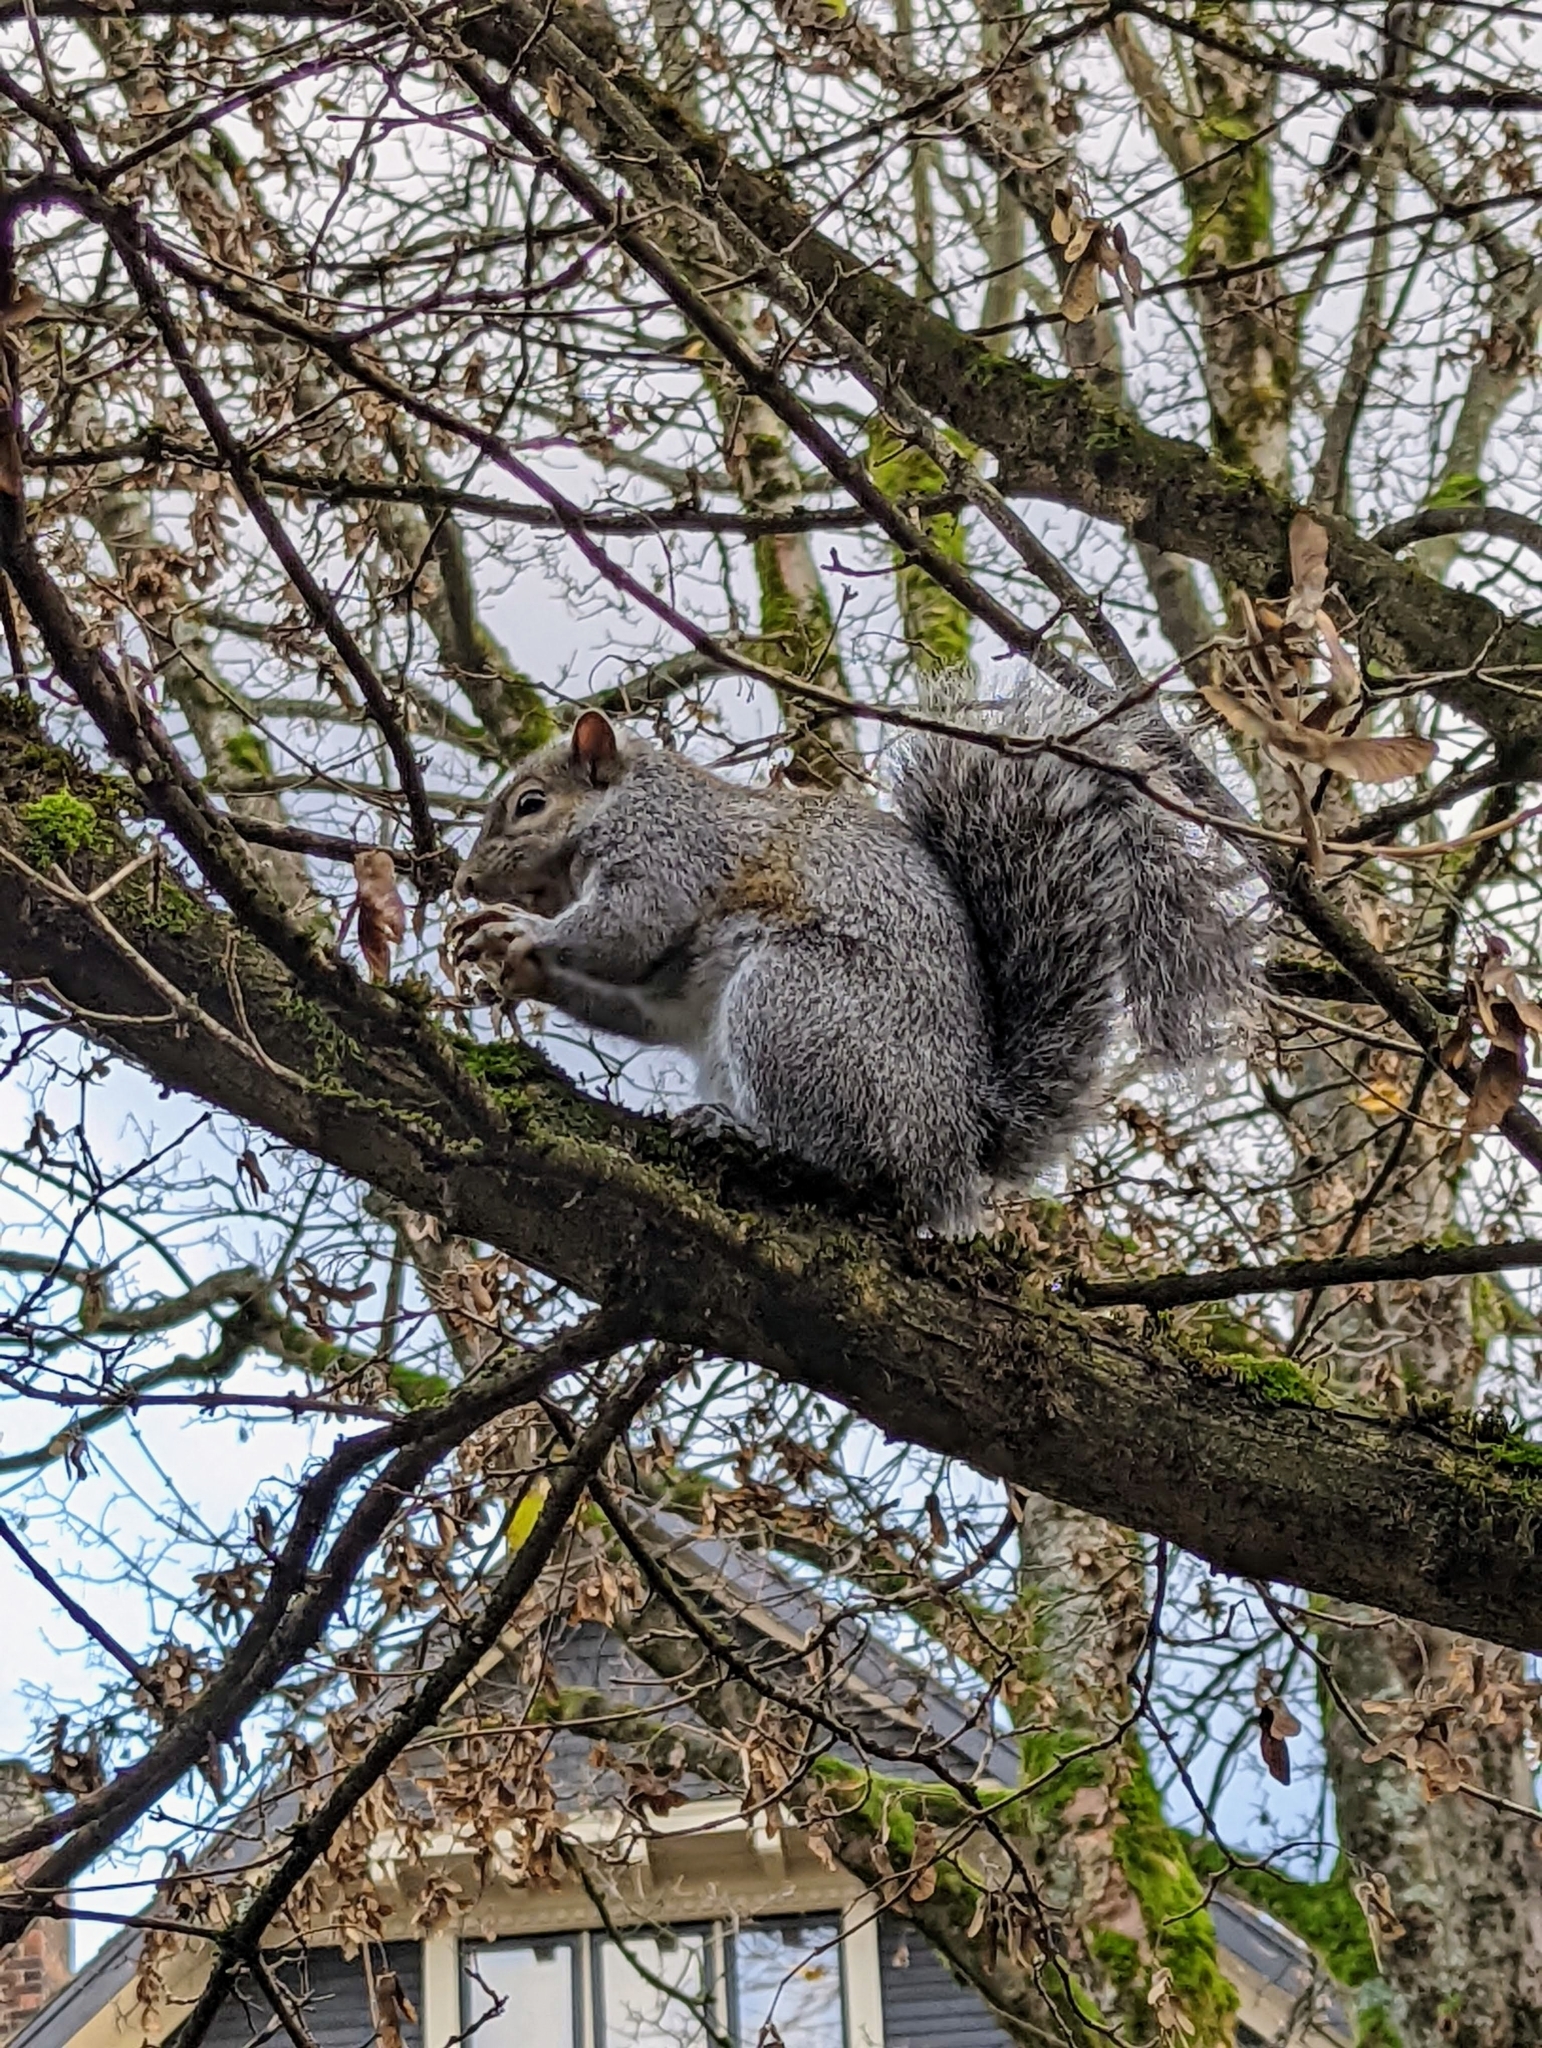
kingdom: Animalia
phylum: Chordata
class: Mammalia
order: Rodentia
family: Sciuridae
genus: Sciurus
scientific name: Sciurus carolinensis
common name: Eastern gray squirrel
